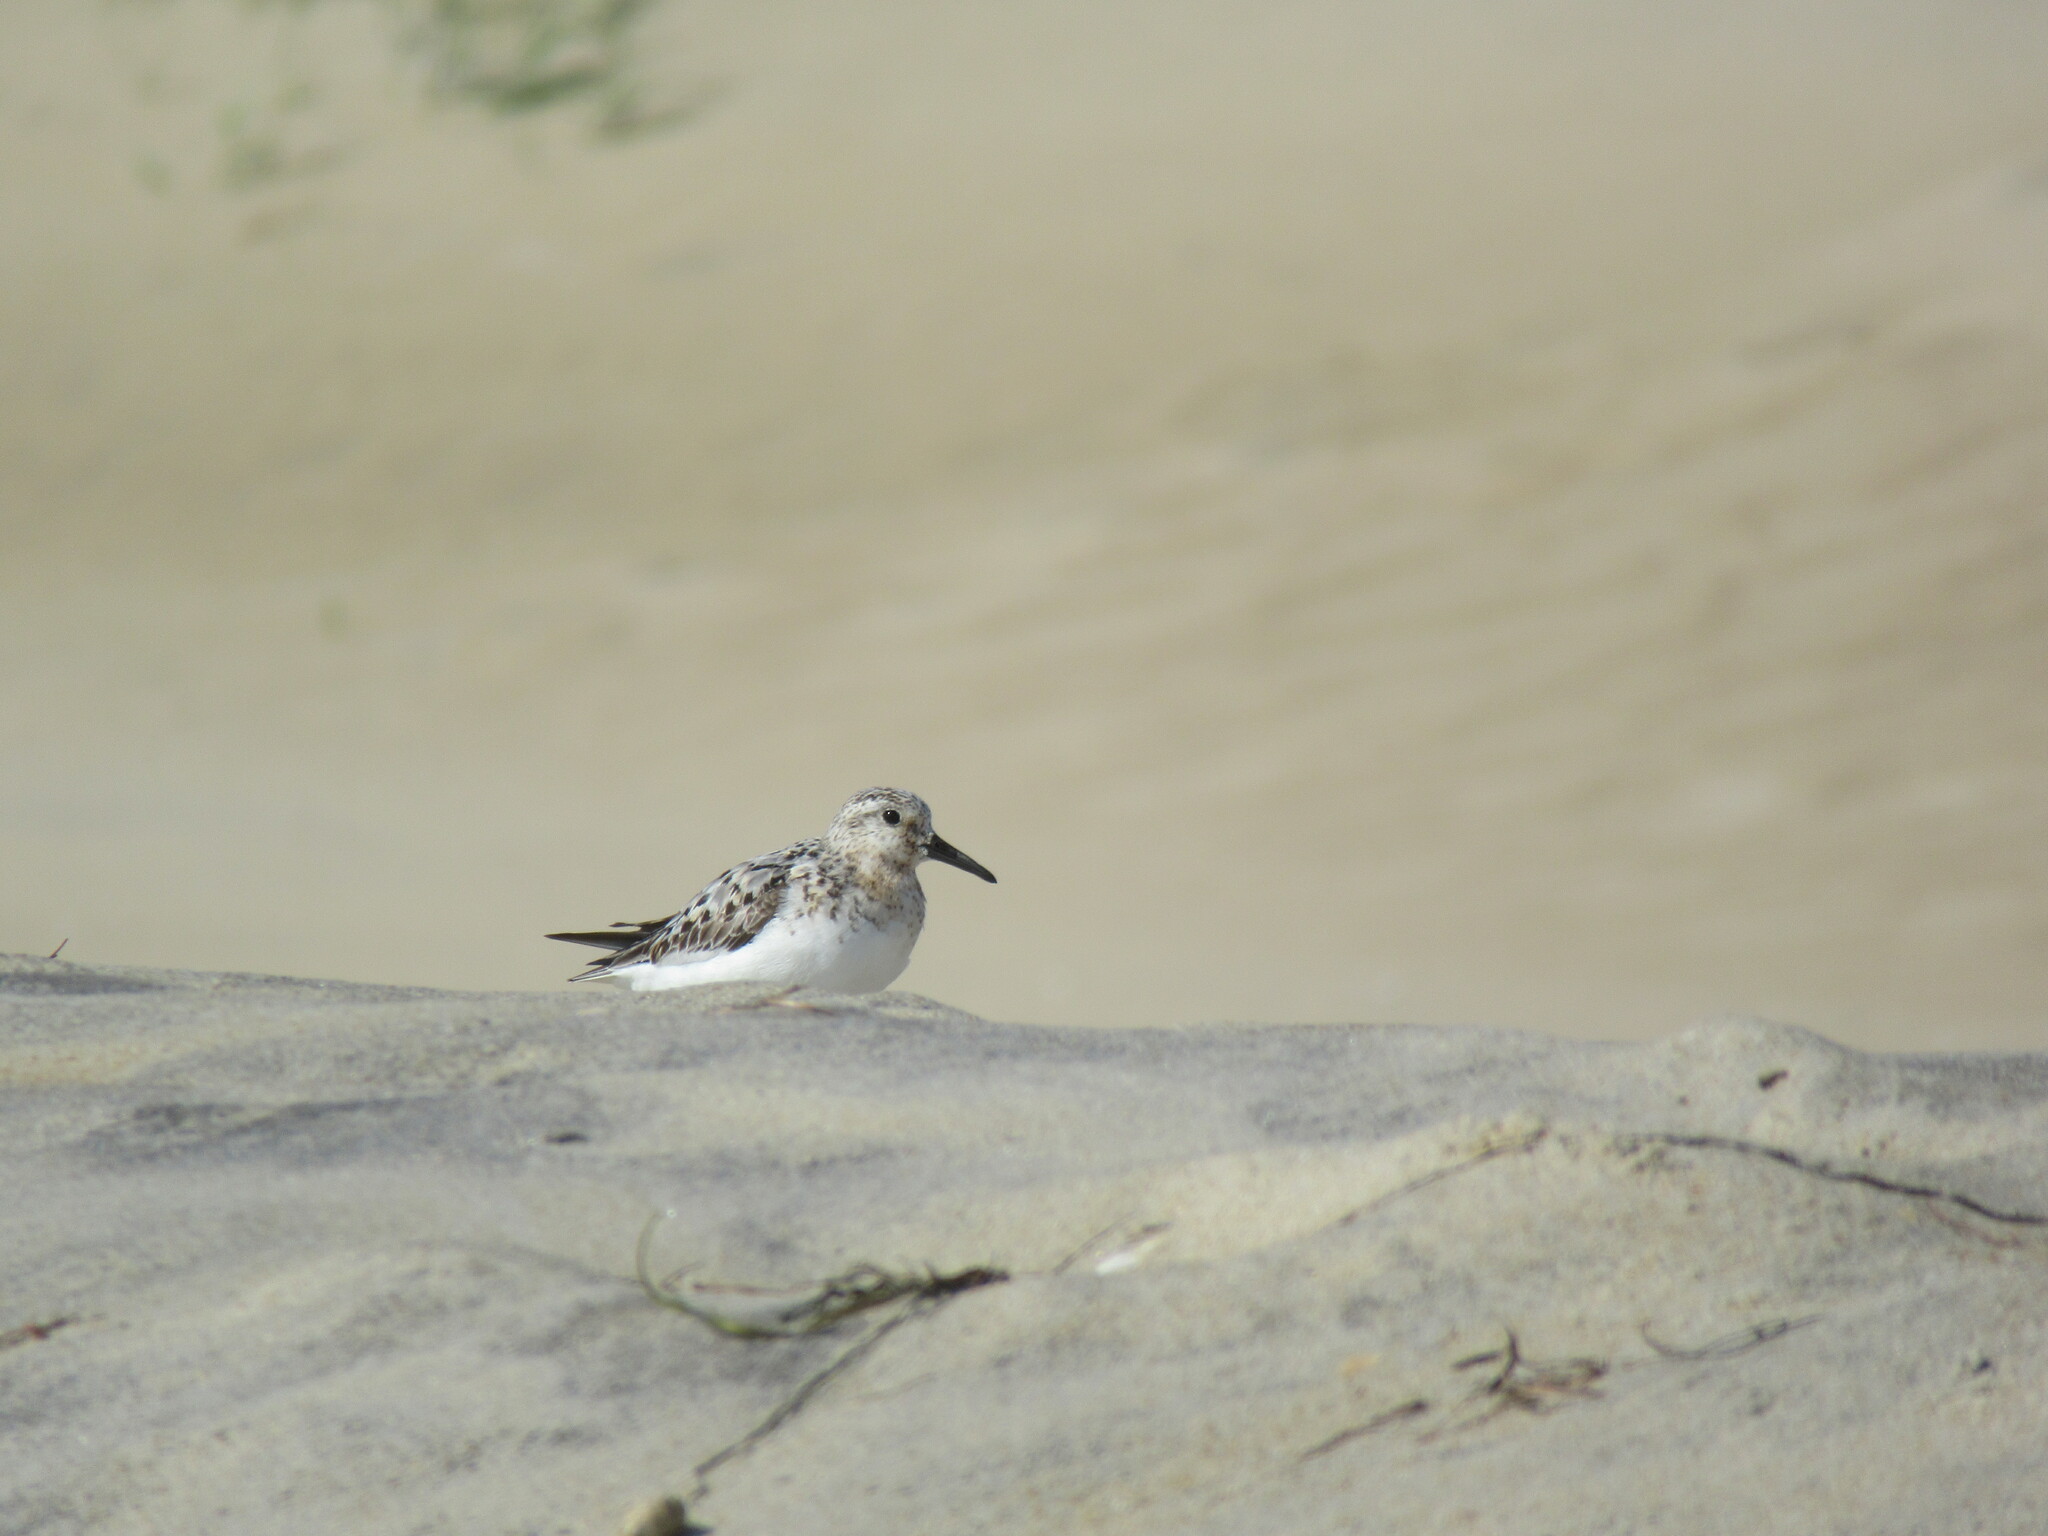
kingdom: Animalia
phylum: Chordata
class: Aves
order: Charadriiformes
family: Scolopacidae
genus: Calidris
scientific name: Calidris alba
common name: Sanderling
